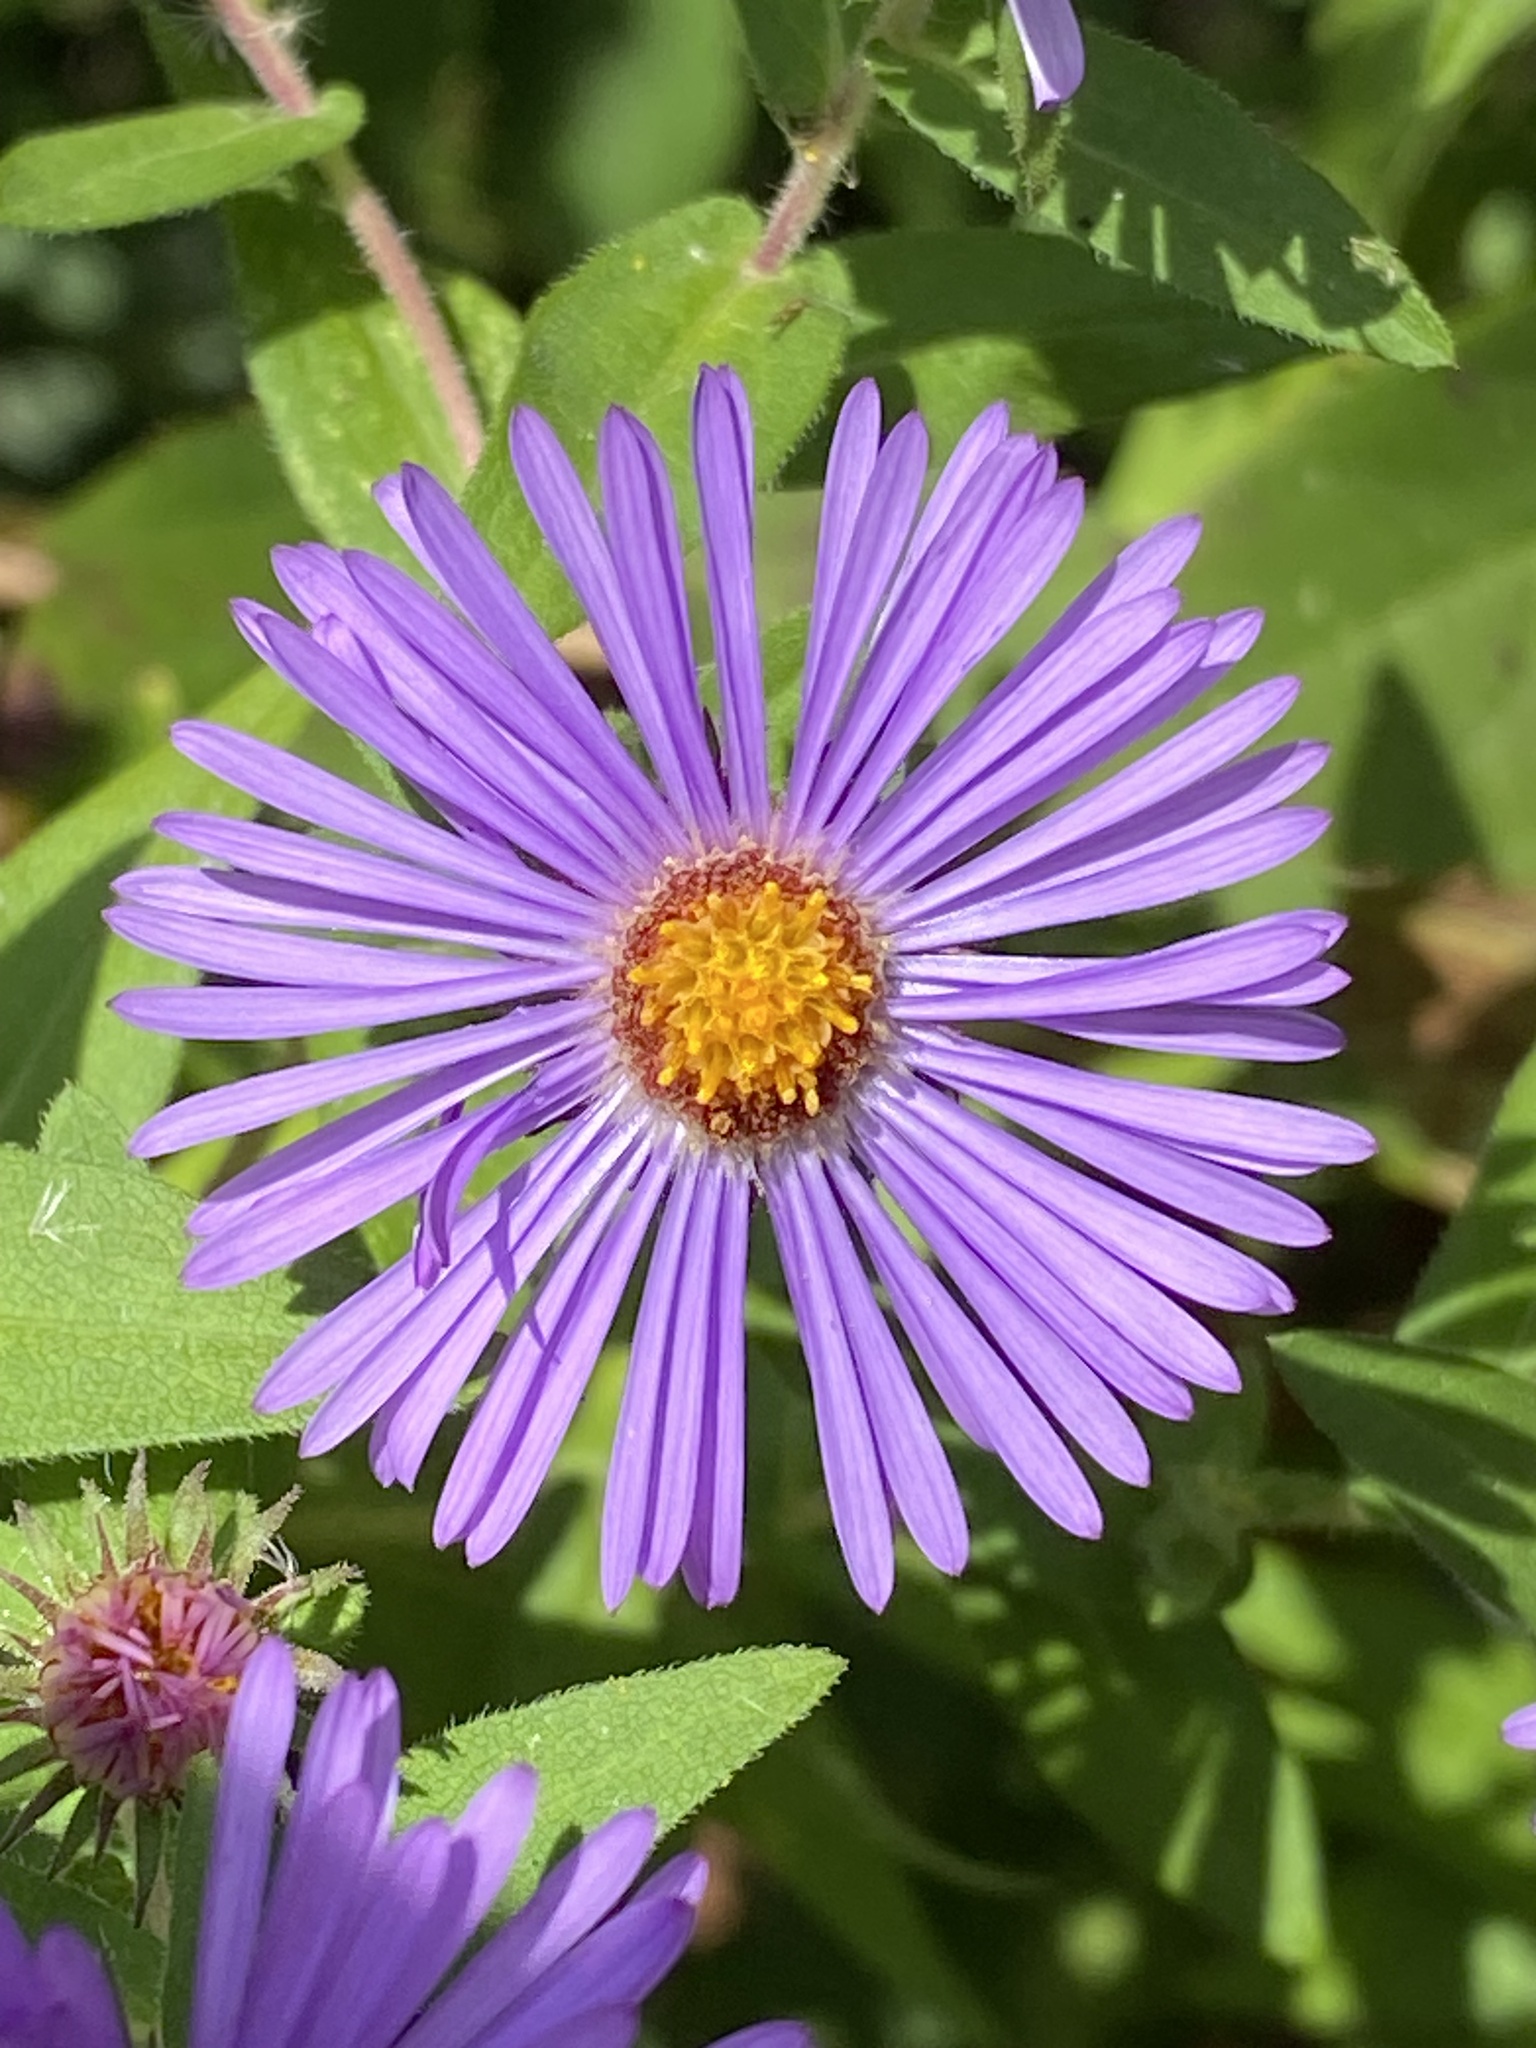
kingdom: Plantae
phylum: Tracheophyta
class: Magnoliopsida
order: Asterales
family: Asteraceae
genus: Symphyotrichum
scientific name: Symphyotrichum novae-angliae
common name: Michaelmas daisy
